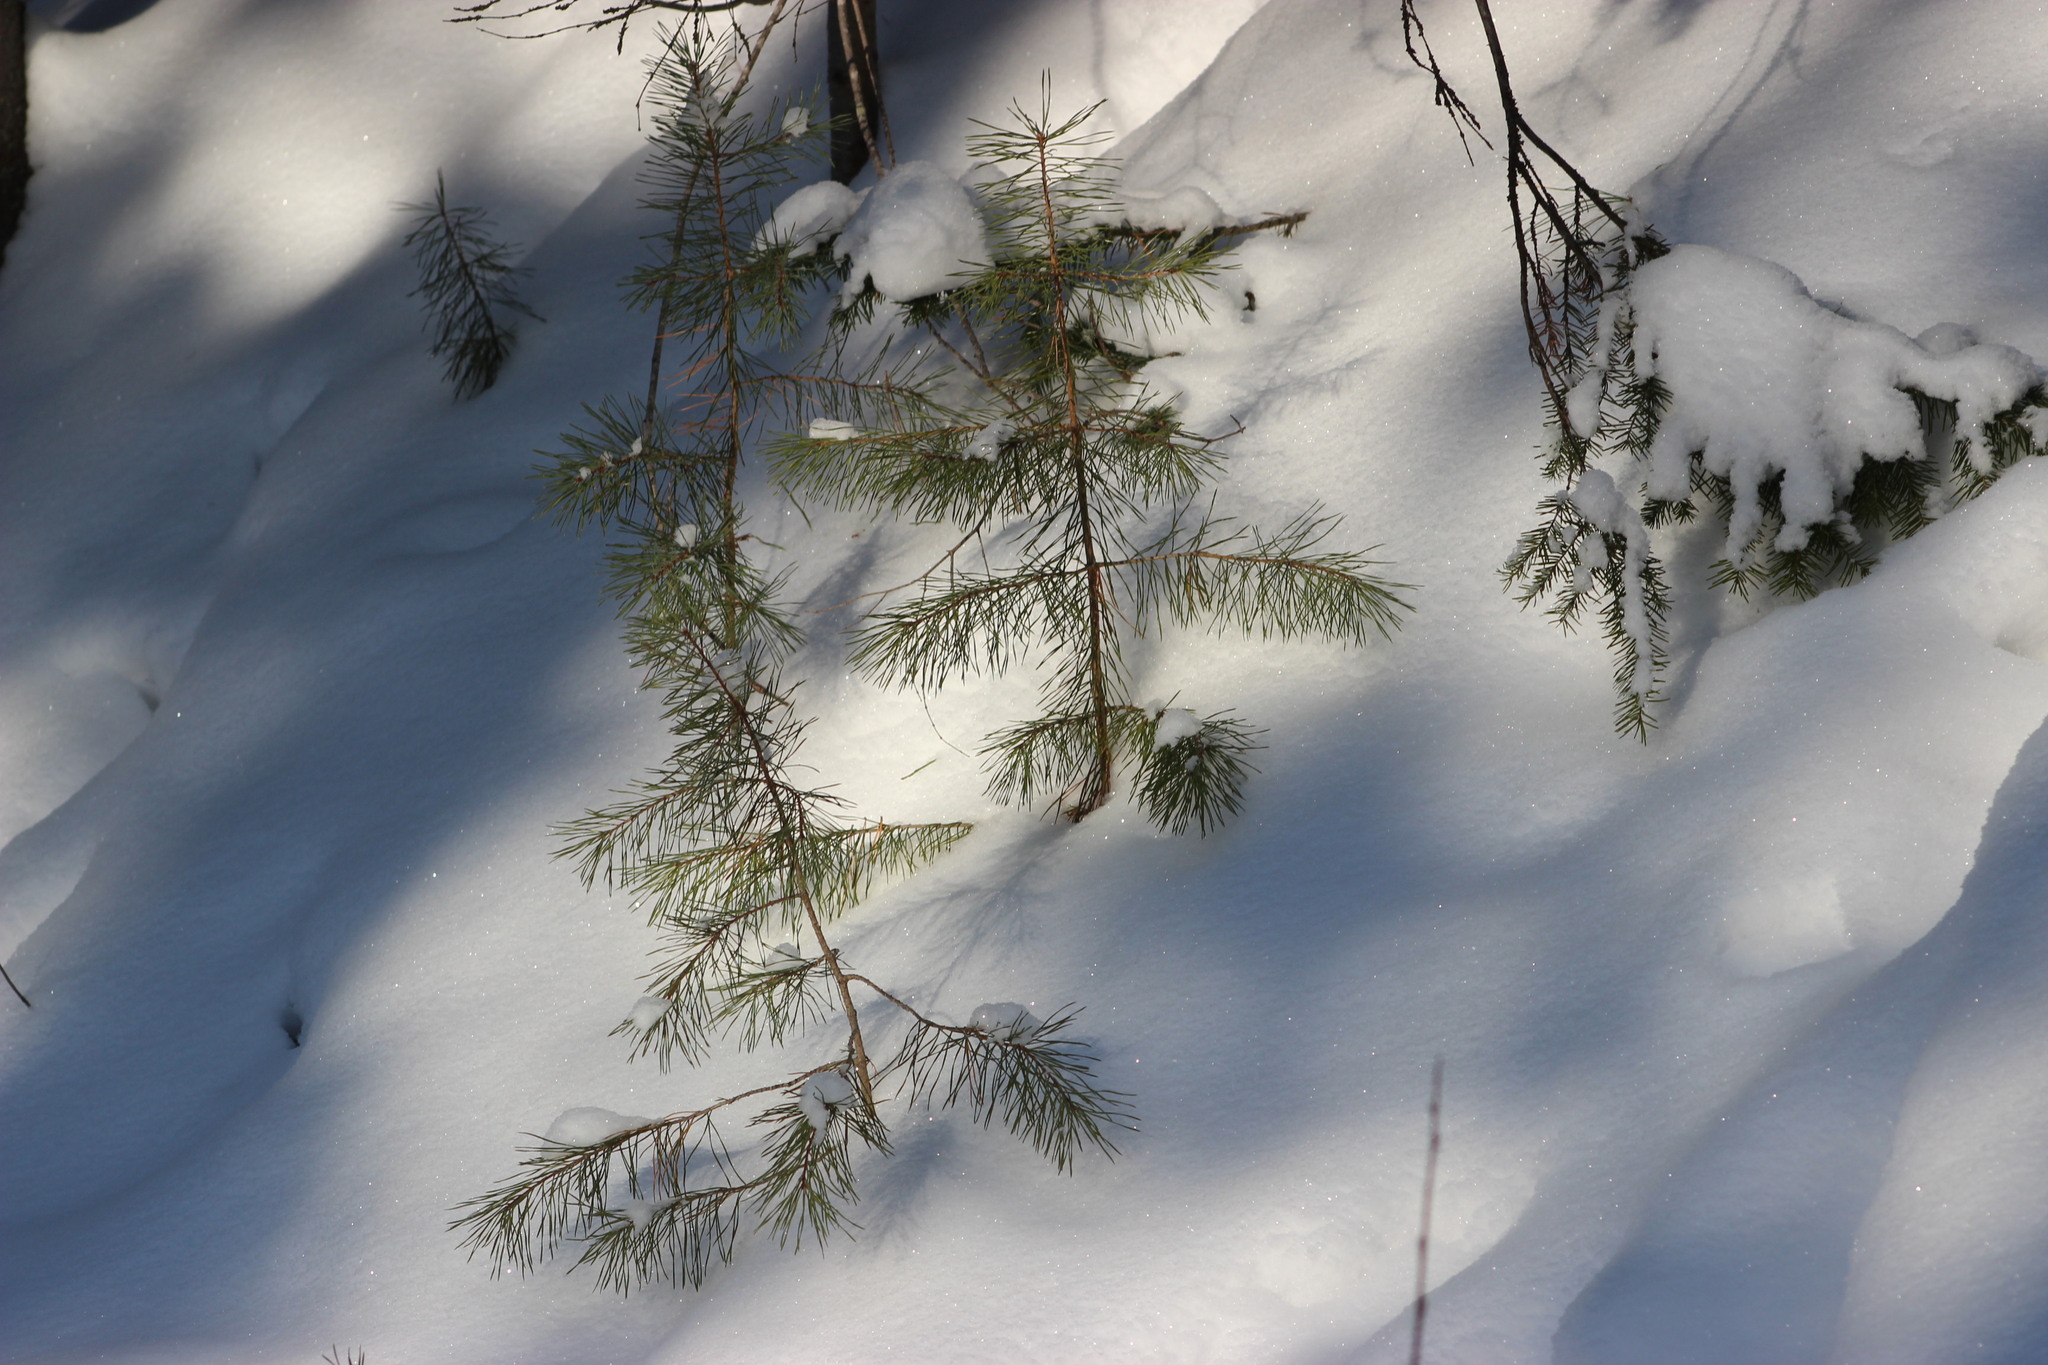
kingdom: Plantae
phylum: Tracheophyta
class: Pinopsida
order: Pinales
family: Pinaceae
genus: Pinus
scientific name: Pinus sylvestris
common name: Scots pine
